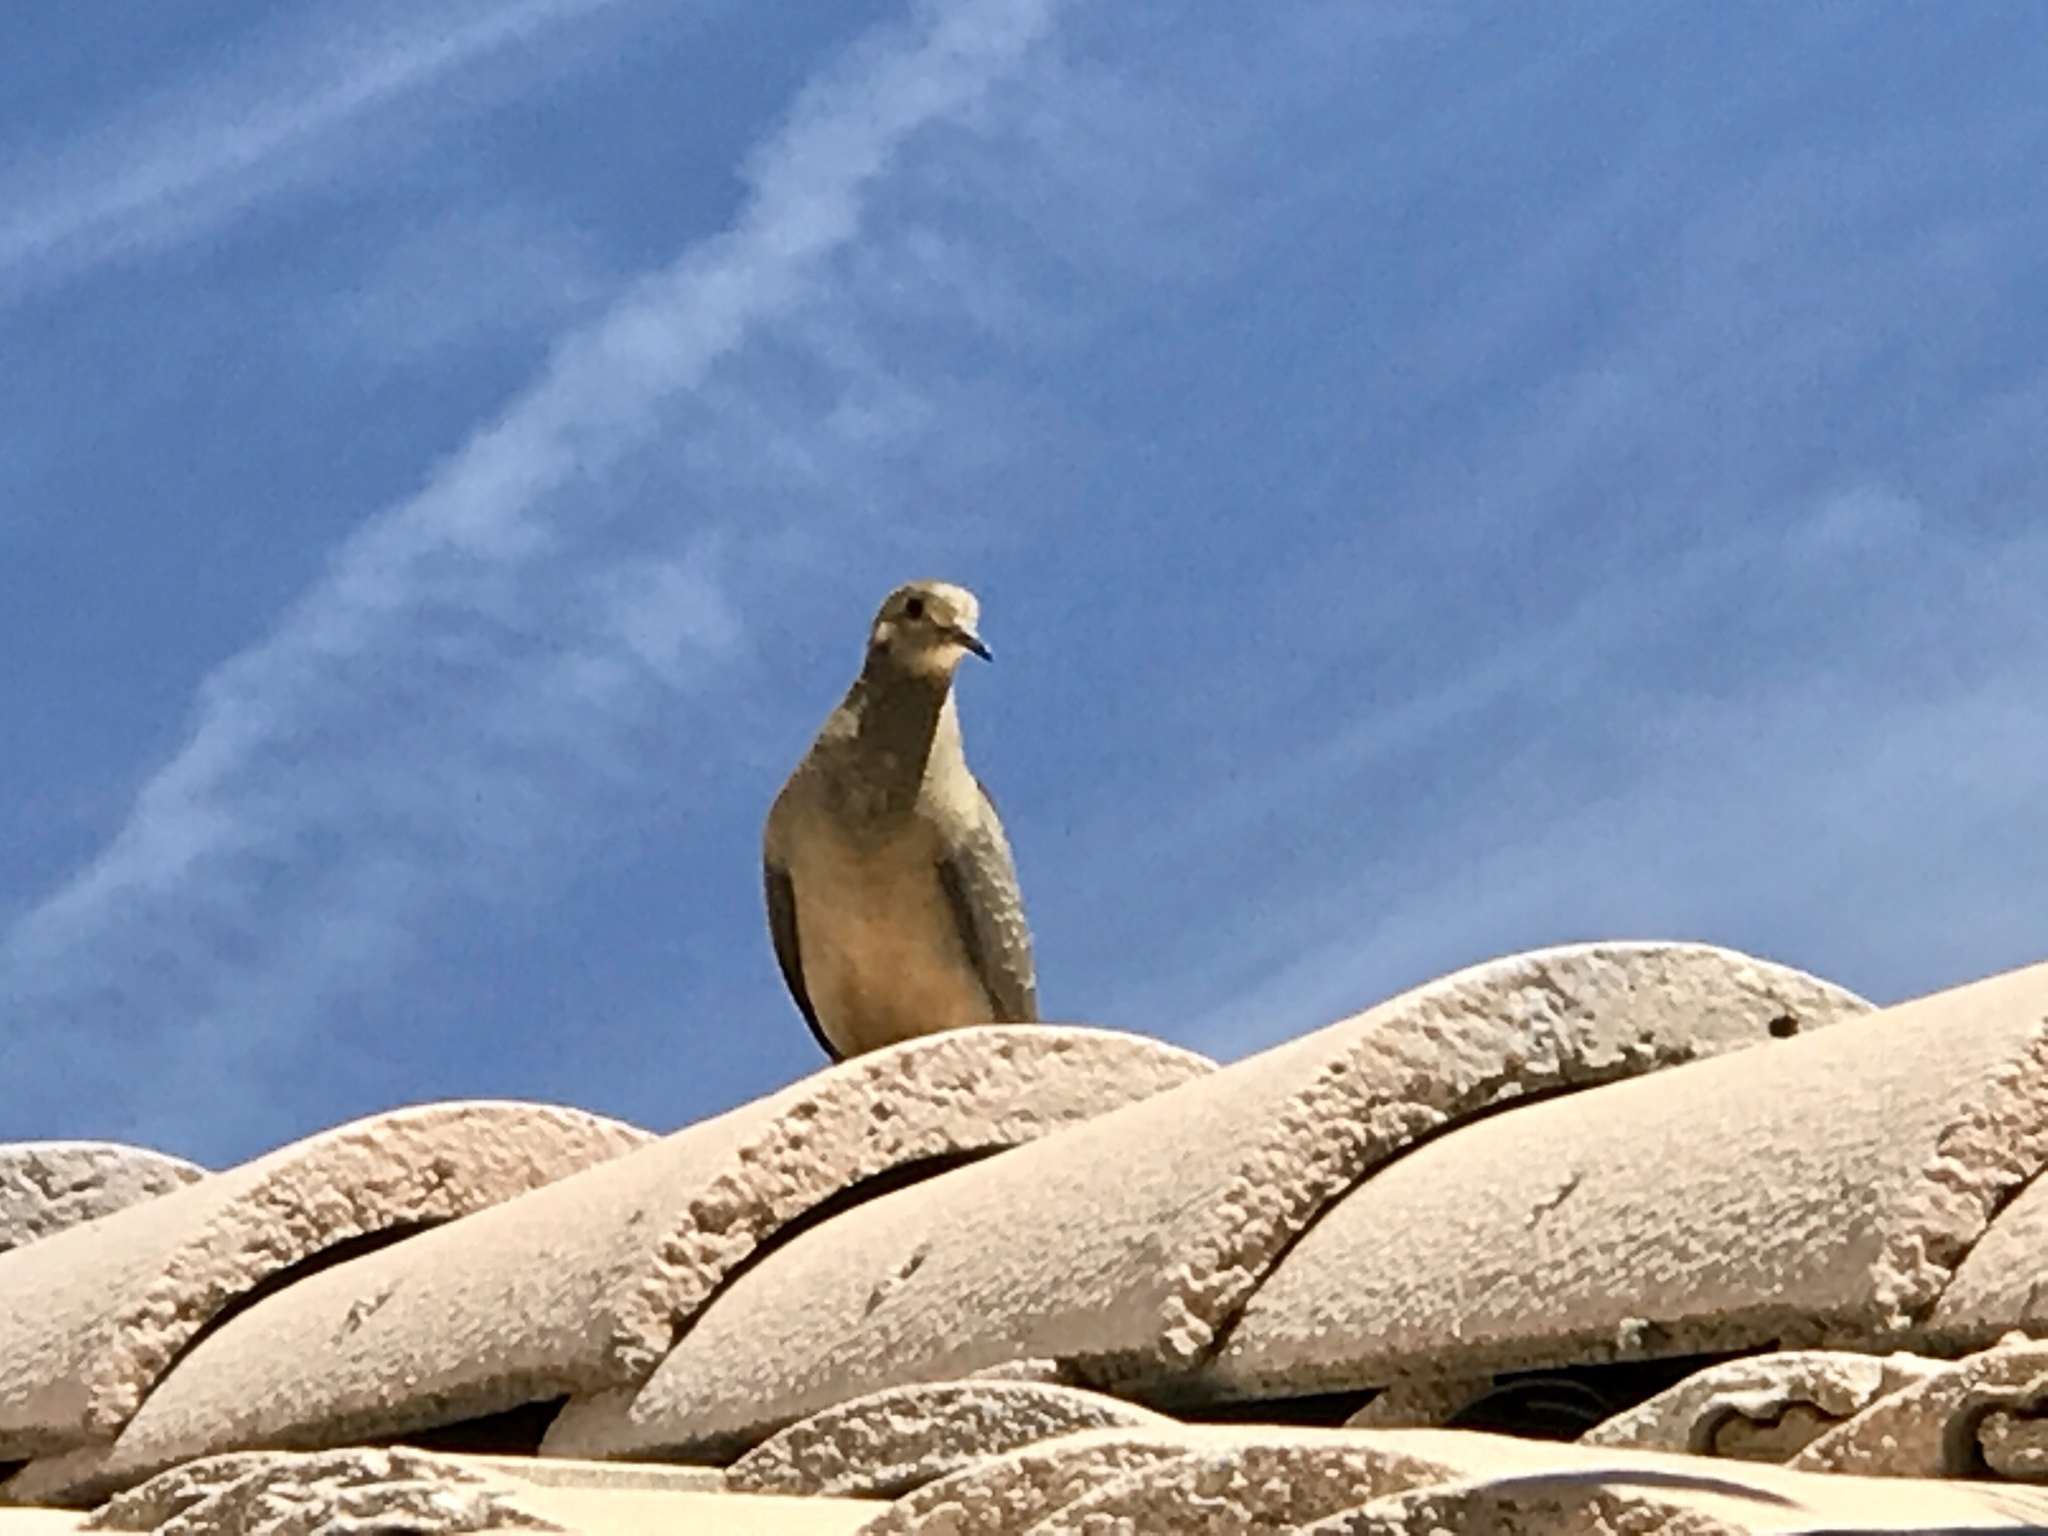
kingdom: Animalia
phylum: Chordata
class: Aves
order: Columbiformes
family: Columbidae
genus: Zenaida
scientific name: Zenaida macroura
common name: Mourning dove
